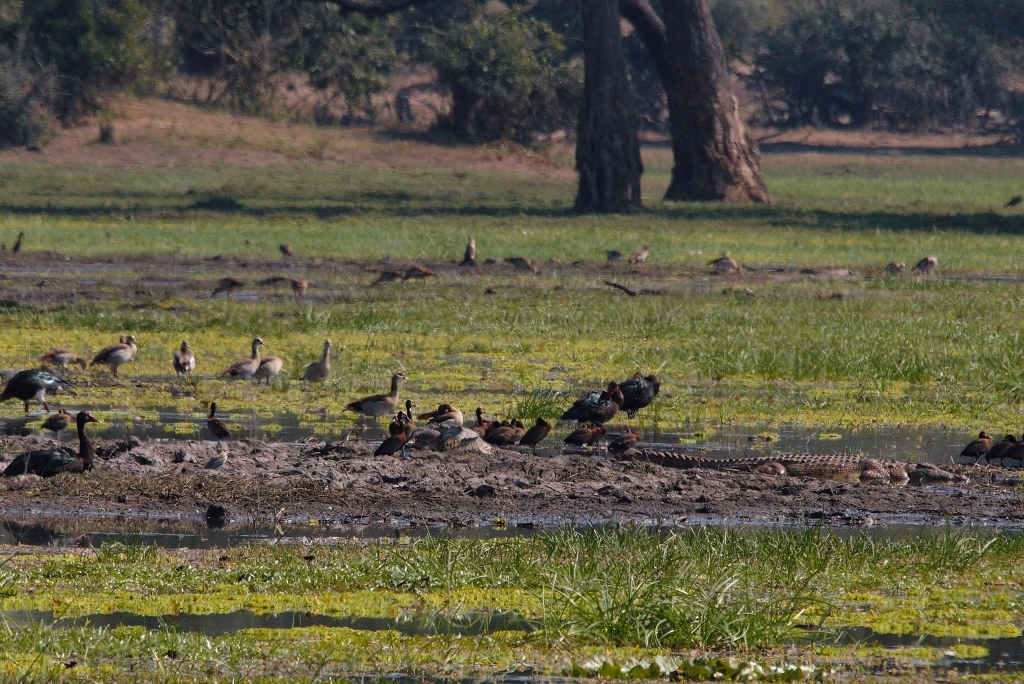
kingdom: Animalia
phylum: Chordata
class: Crocodylia
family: Crocodylidae
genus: Crocodylus
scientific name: Crocodylus niloticus
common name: Nile crocodile
